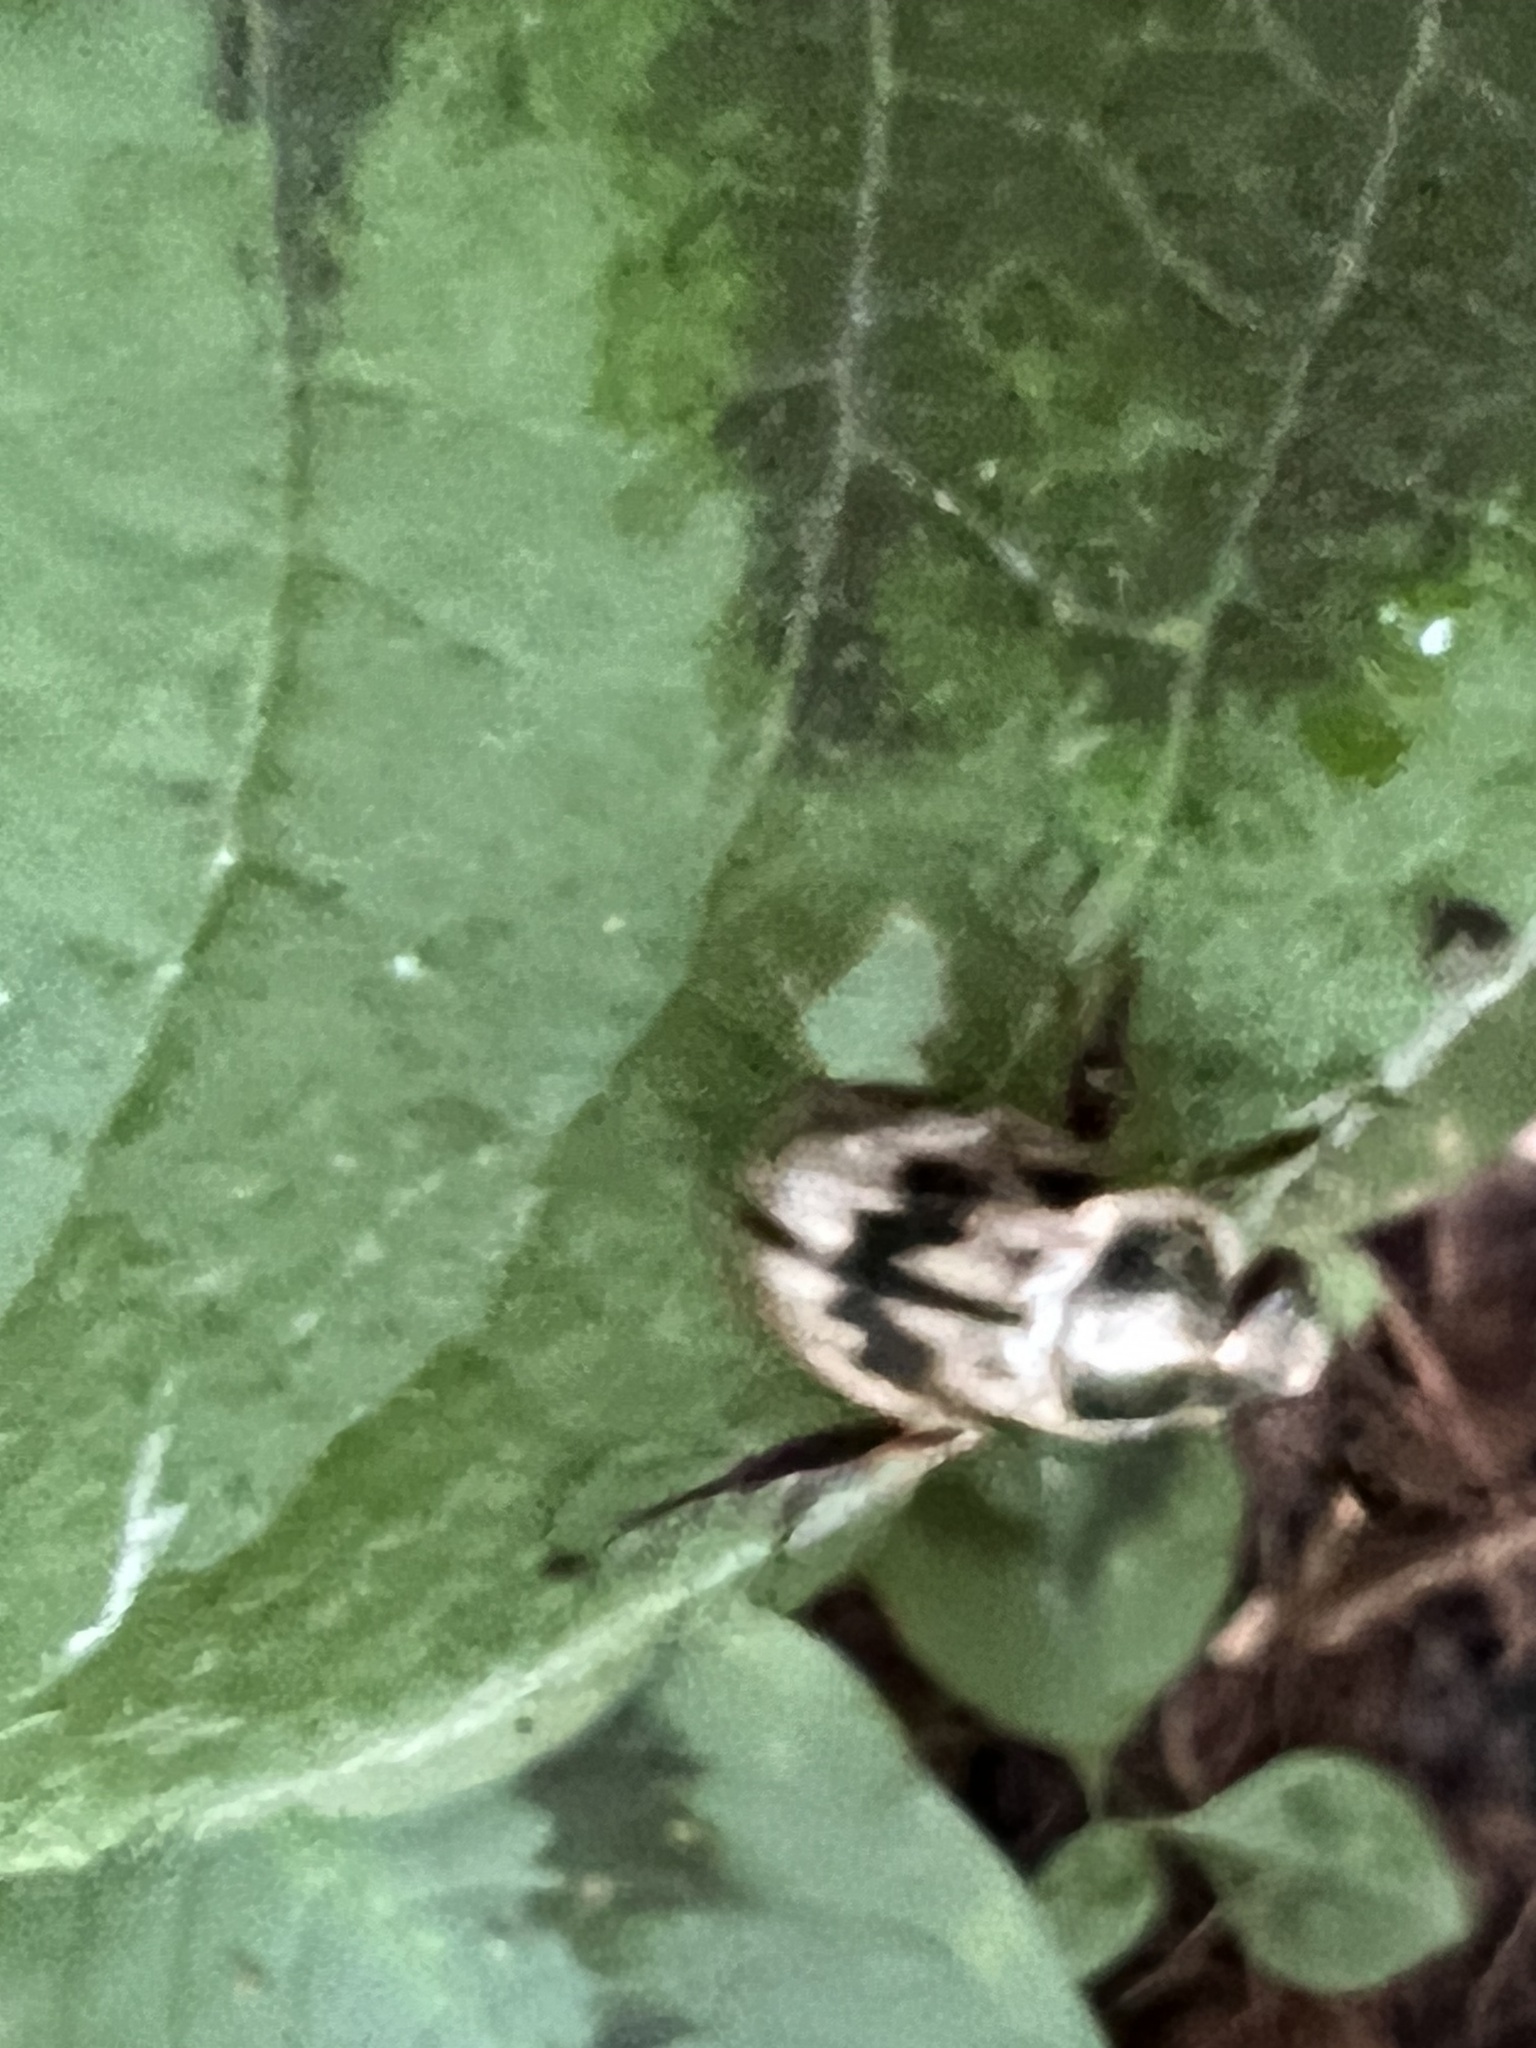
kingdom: Animalia
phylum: Arthropoda
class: Insecta
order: Coleoptera
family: Scarabaeidae
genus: Exomala
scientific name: Exomala orientalis
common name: Oriental beetle
